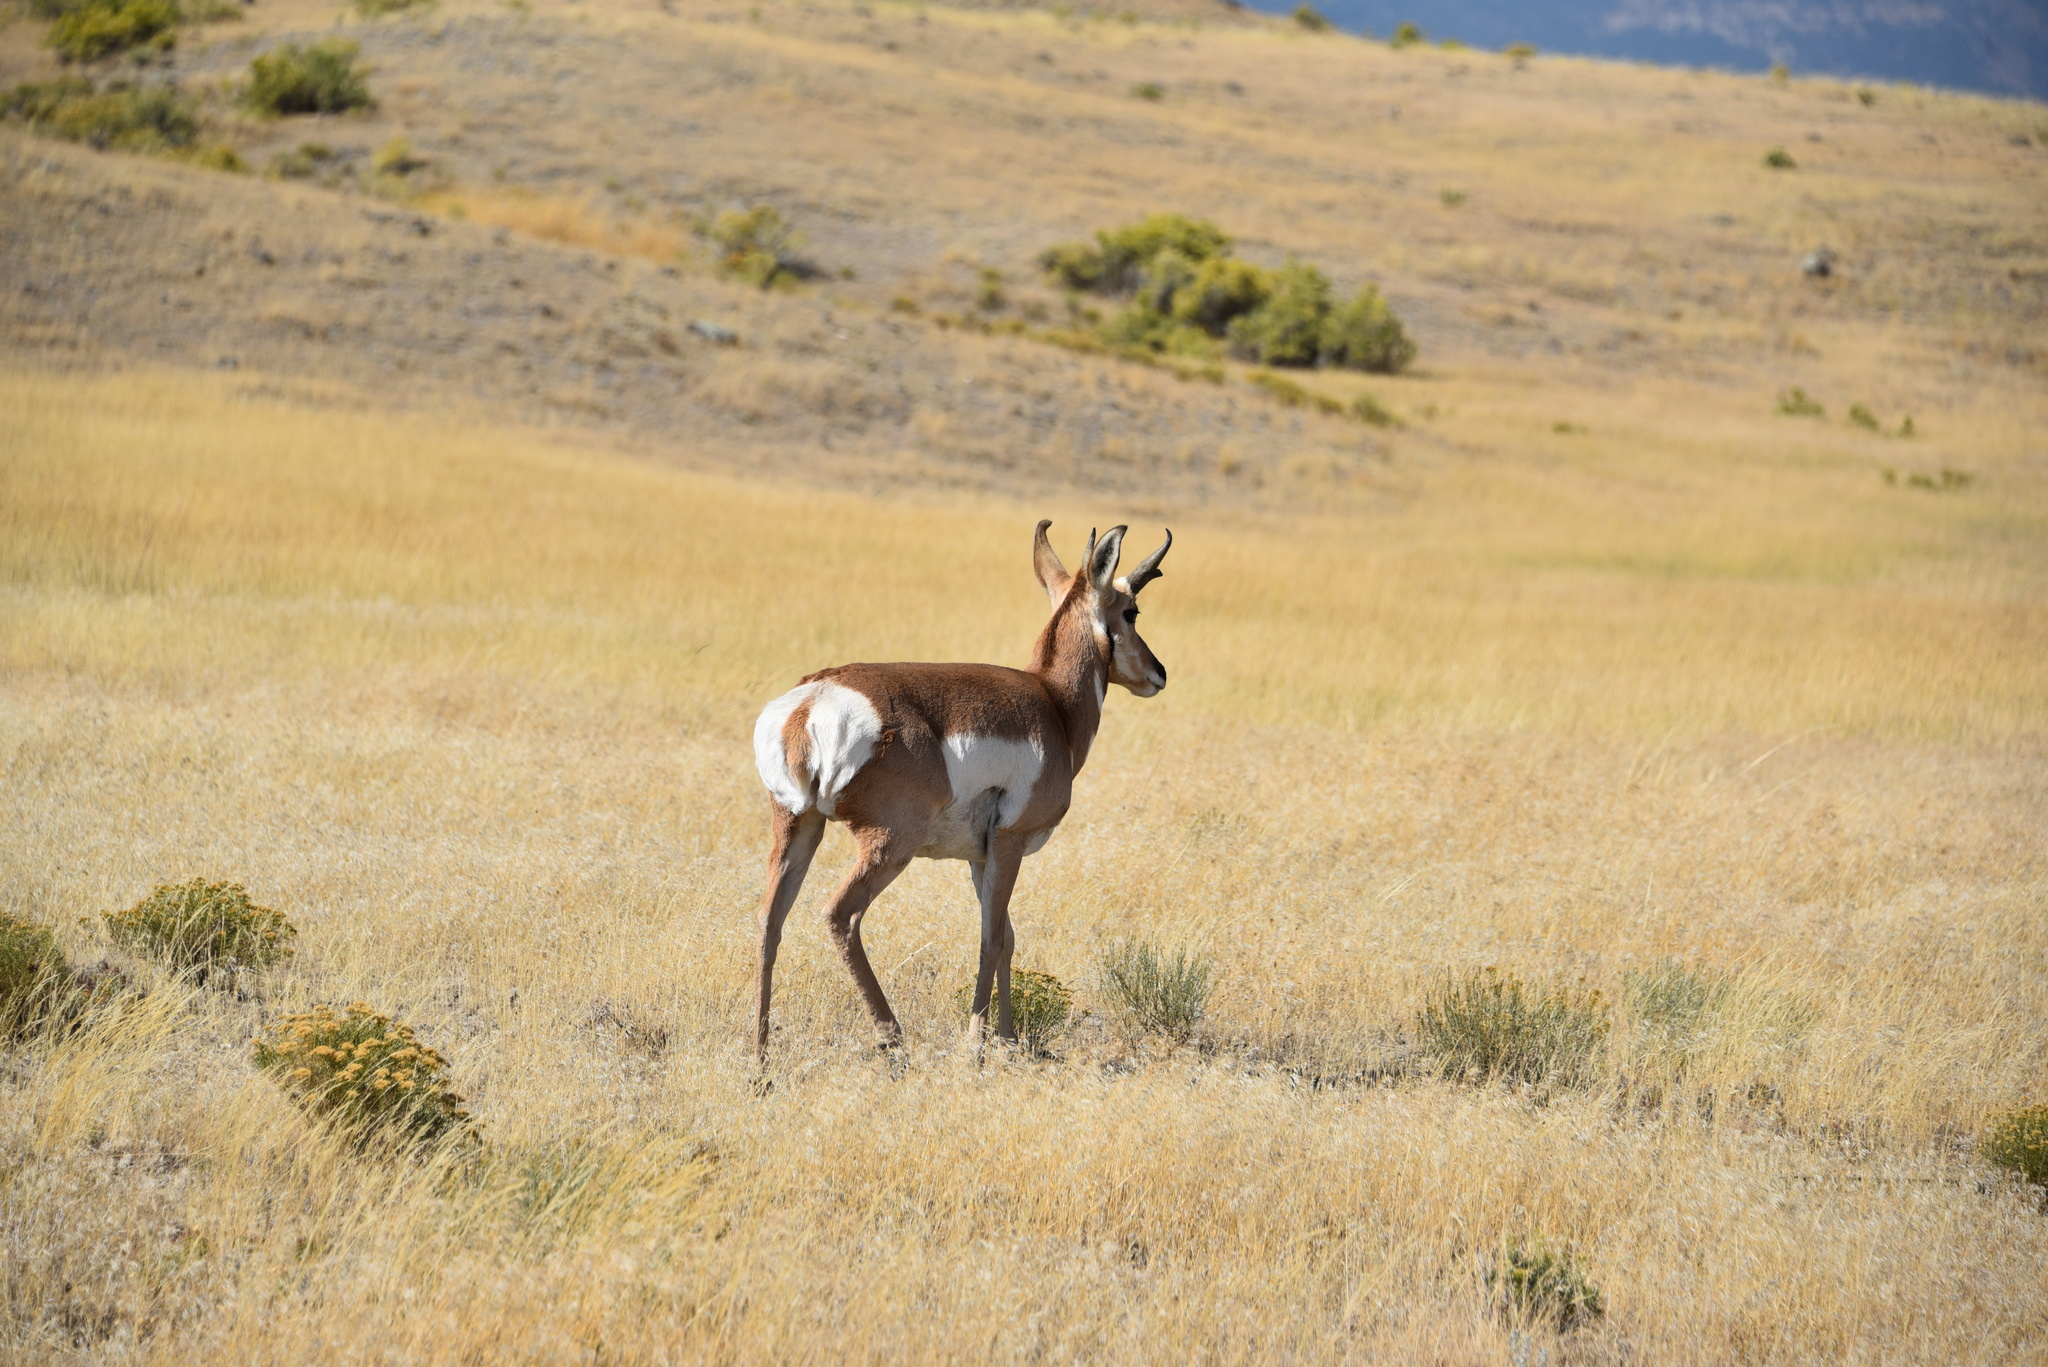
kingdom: Animalia
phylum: Chordata
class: Mammalia
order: Artiodactyla
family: Antilocapridae
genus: Antilocapra
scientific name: Antilocapra americana
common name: Pronghorn
